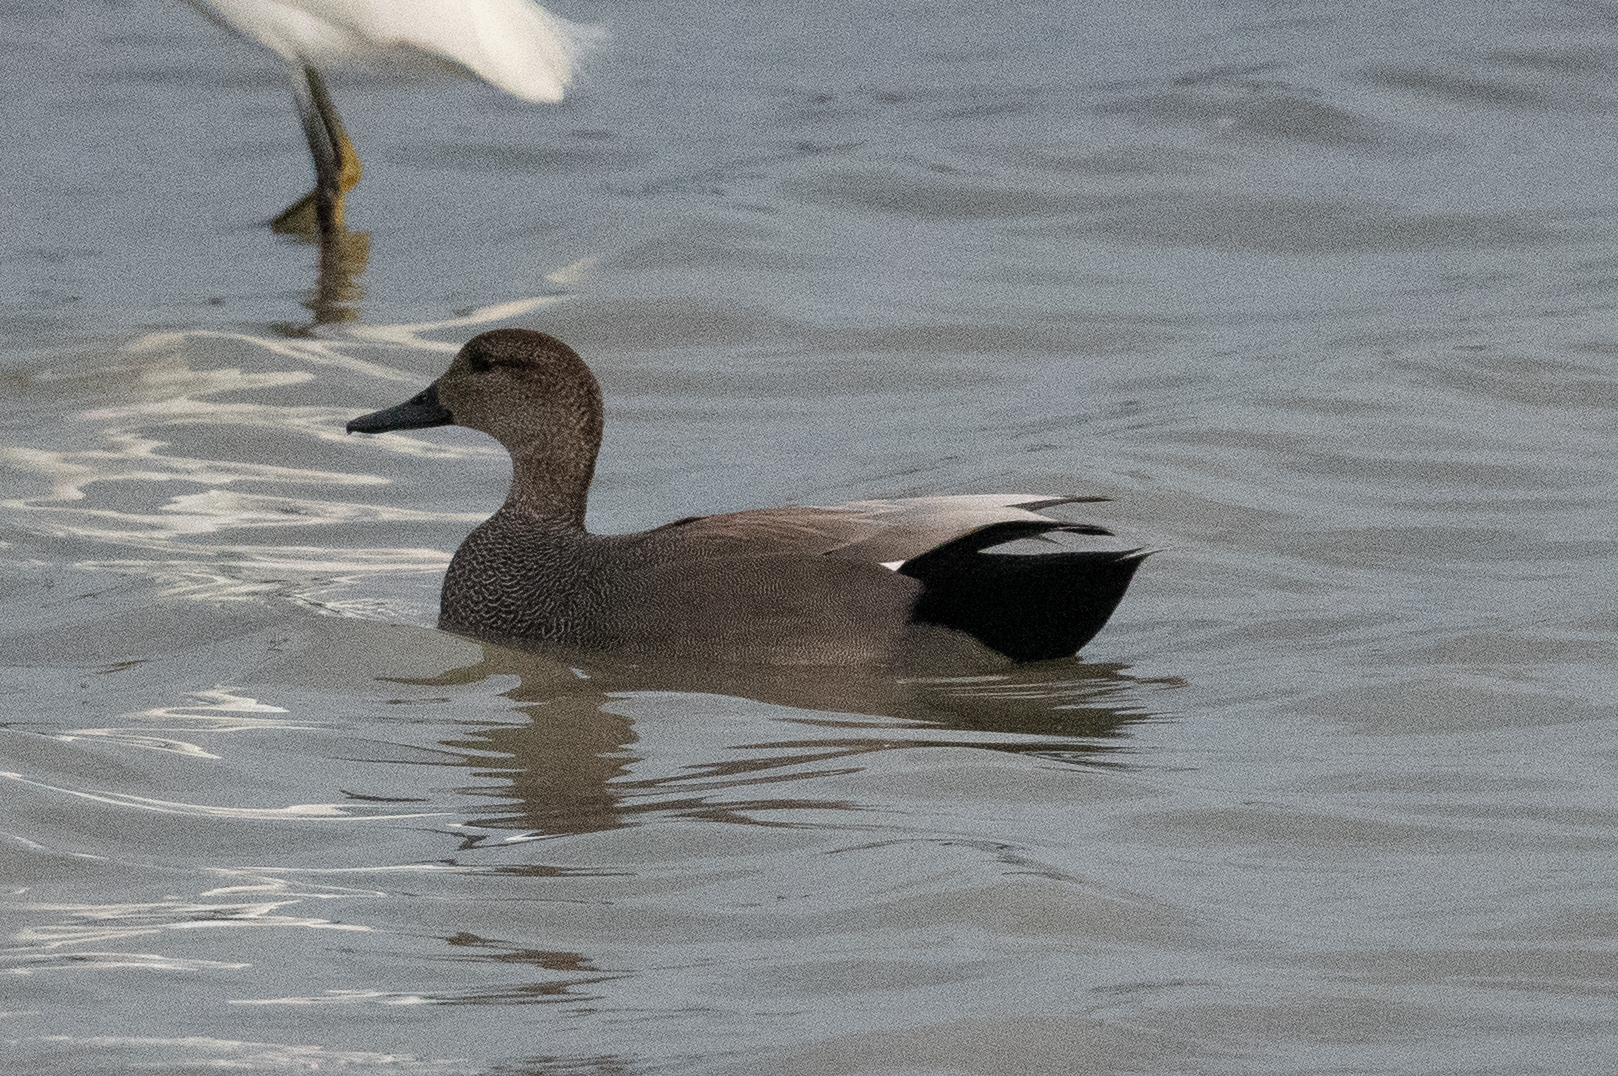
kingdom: Animalia
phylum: Chordata
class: Aves
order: Anseriformes
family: Anatidae
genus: Mareca
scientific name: Mareca strepera
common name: Gadwall
